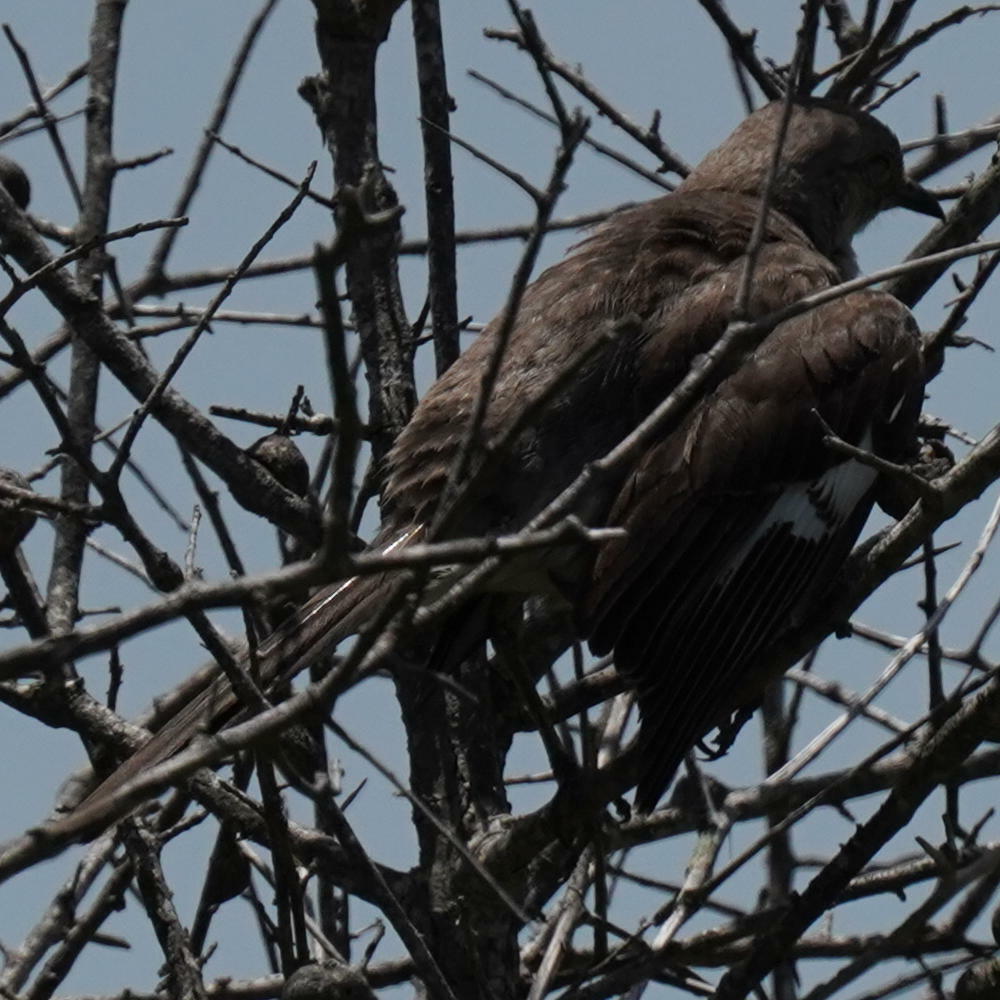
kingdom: Animalia
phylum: Chordata
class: Aves
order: Passeriformes
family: Mimidae
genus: Mimus
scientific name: Mimus polyglottos
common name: Northern mockingbird
